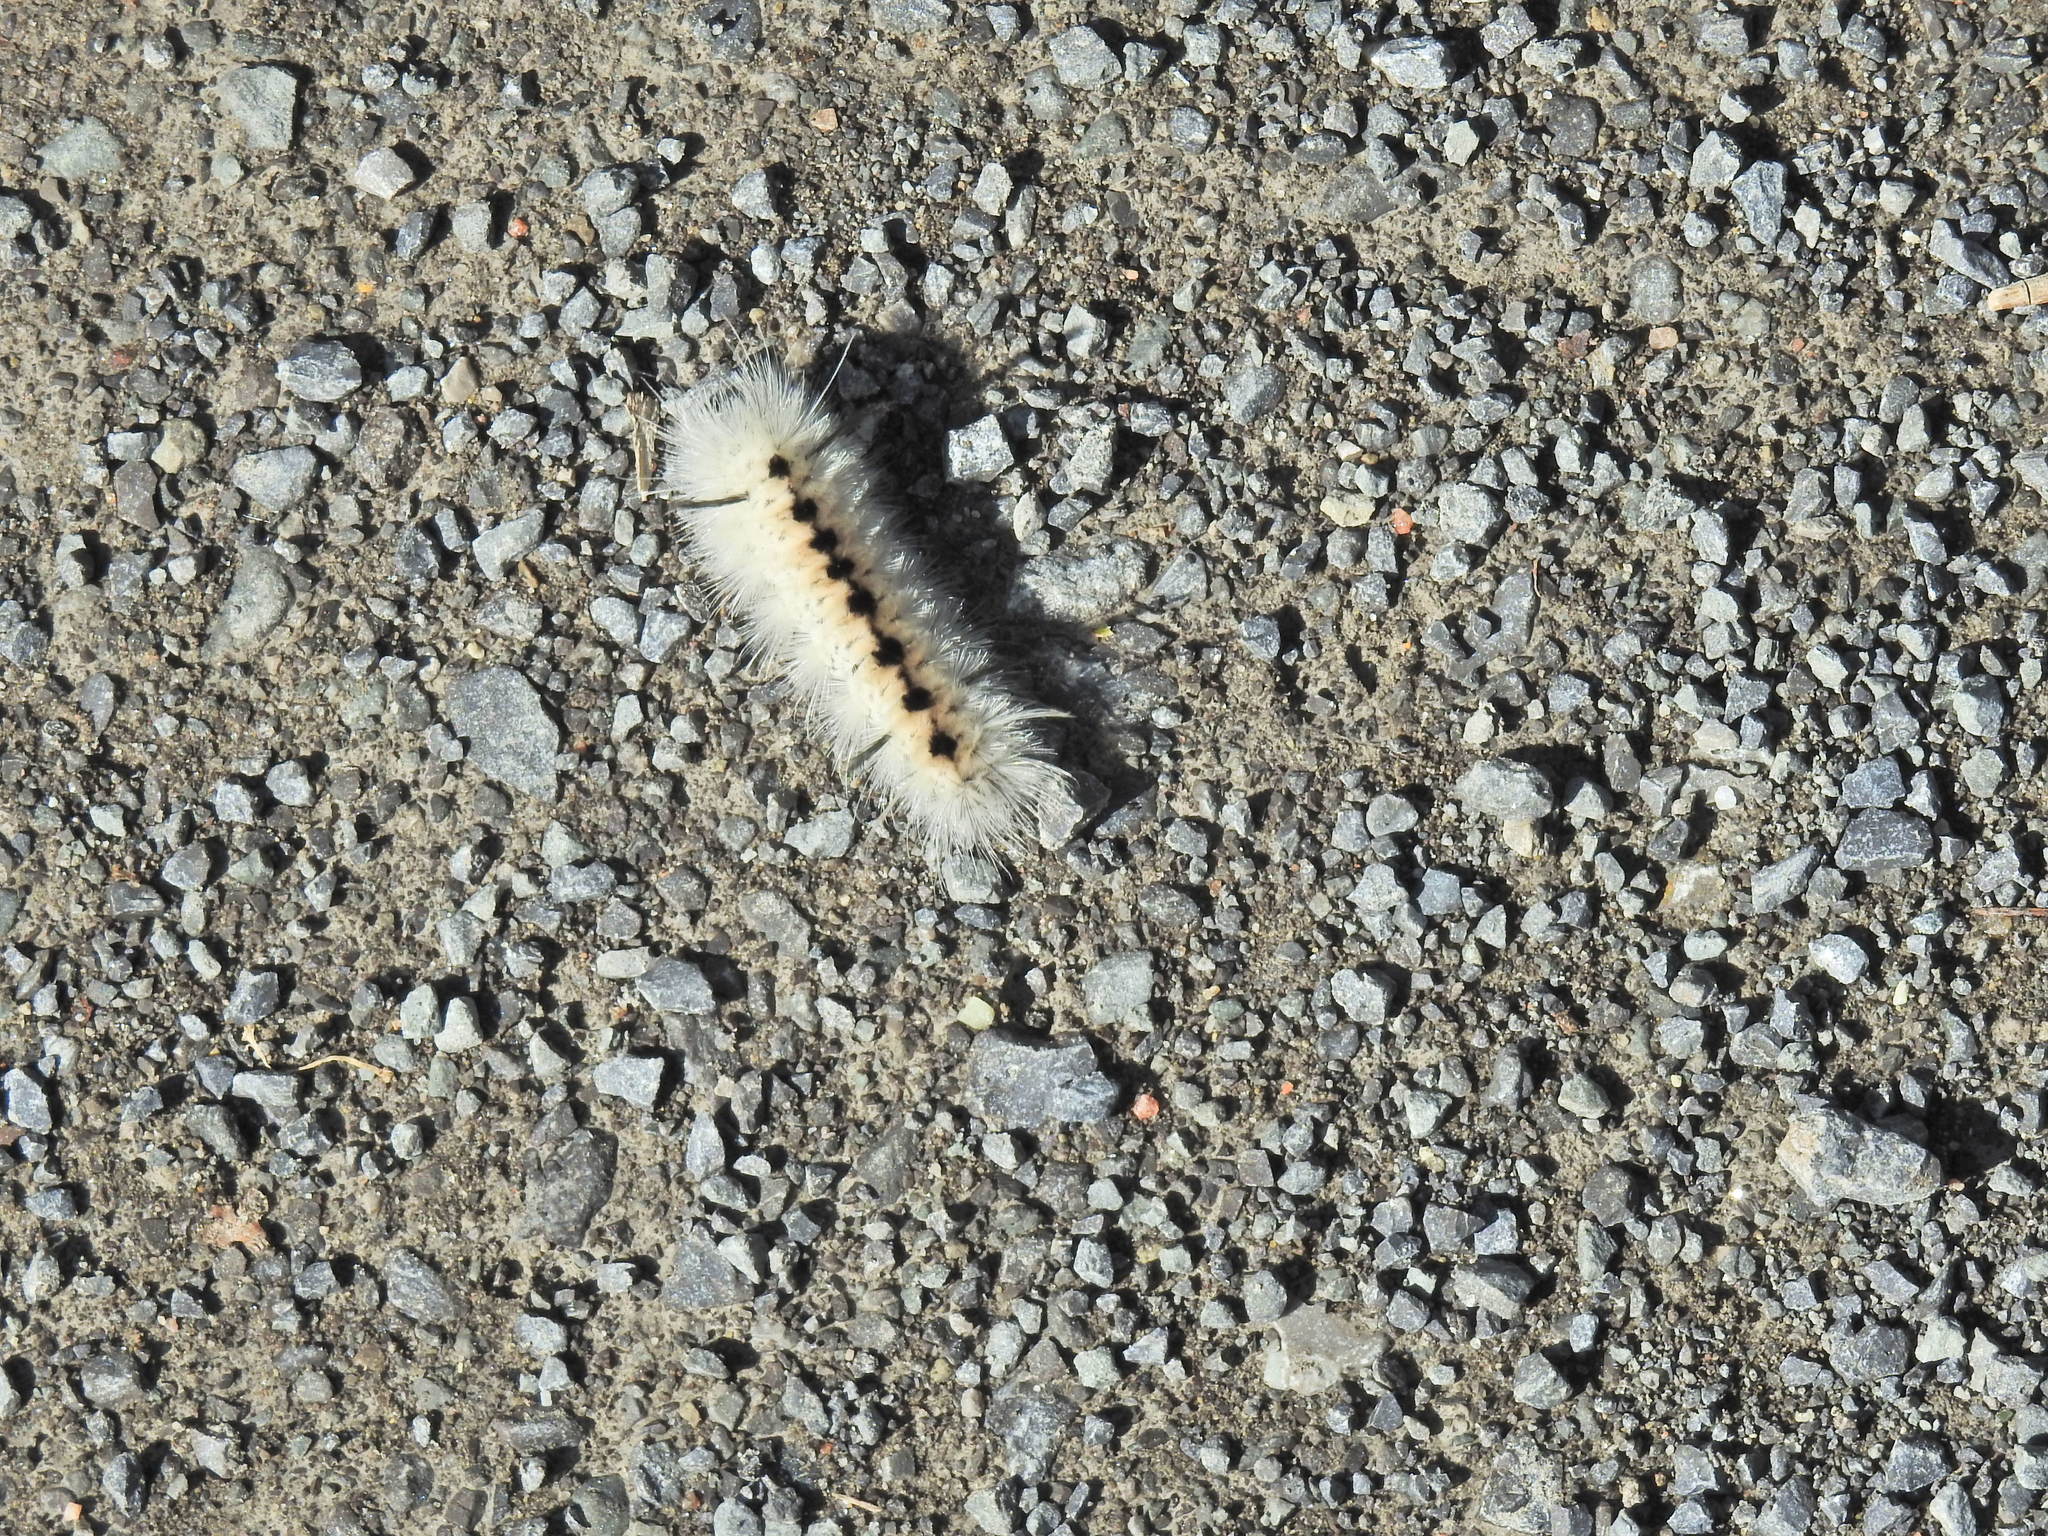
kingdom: Animalia
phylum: Arthropoda
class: Insecta
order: Lepidoptera
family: Erebidae
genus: Lophocampa
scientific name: Lophocampa caryae
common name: Hickory tussock moth
